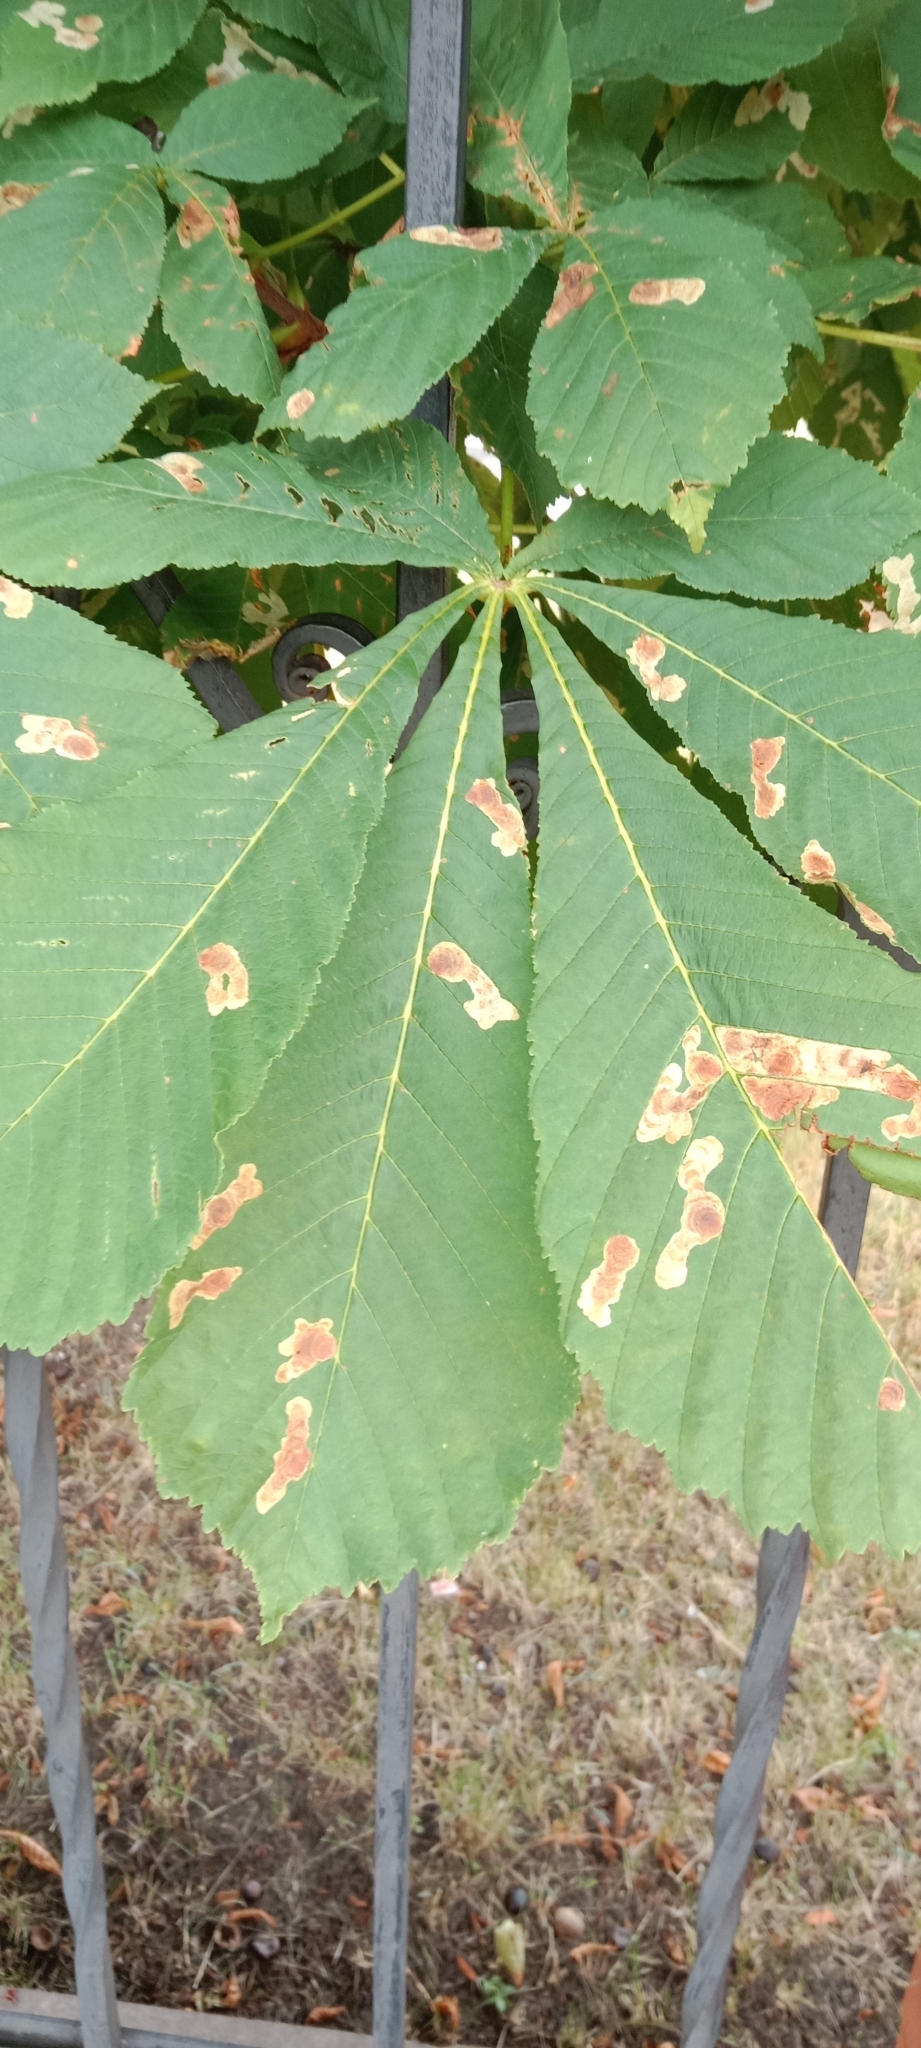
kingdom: Animalia
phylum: Arthropoda
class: Insecta
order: Lepidoptera
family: Gracillariidae
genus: Cameraria
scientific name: Cameraria ohridella
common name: Horse-chestnut leaf-miner
